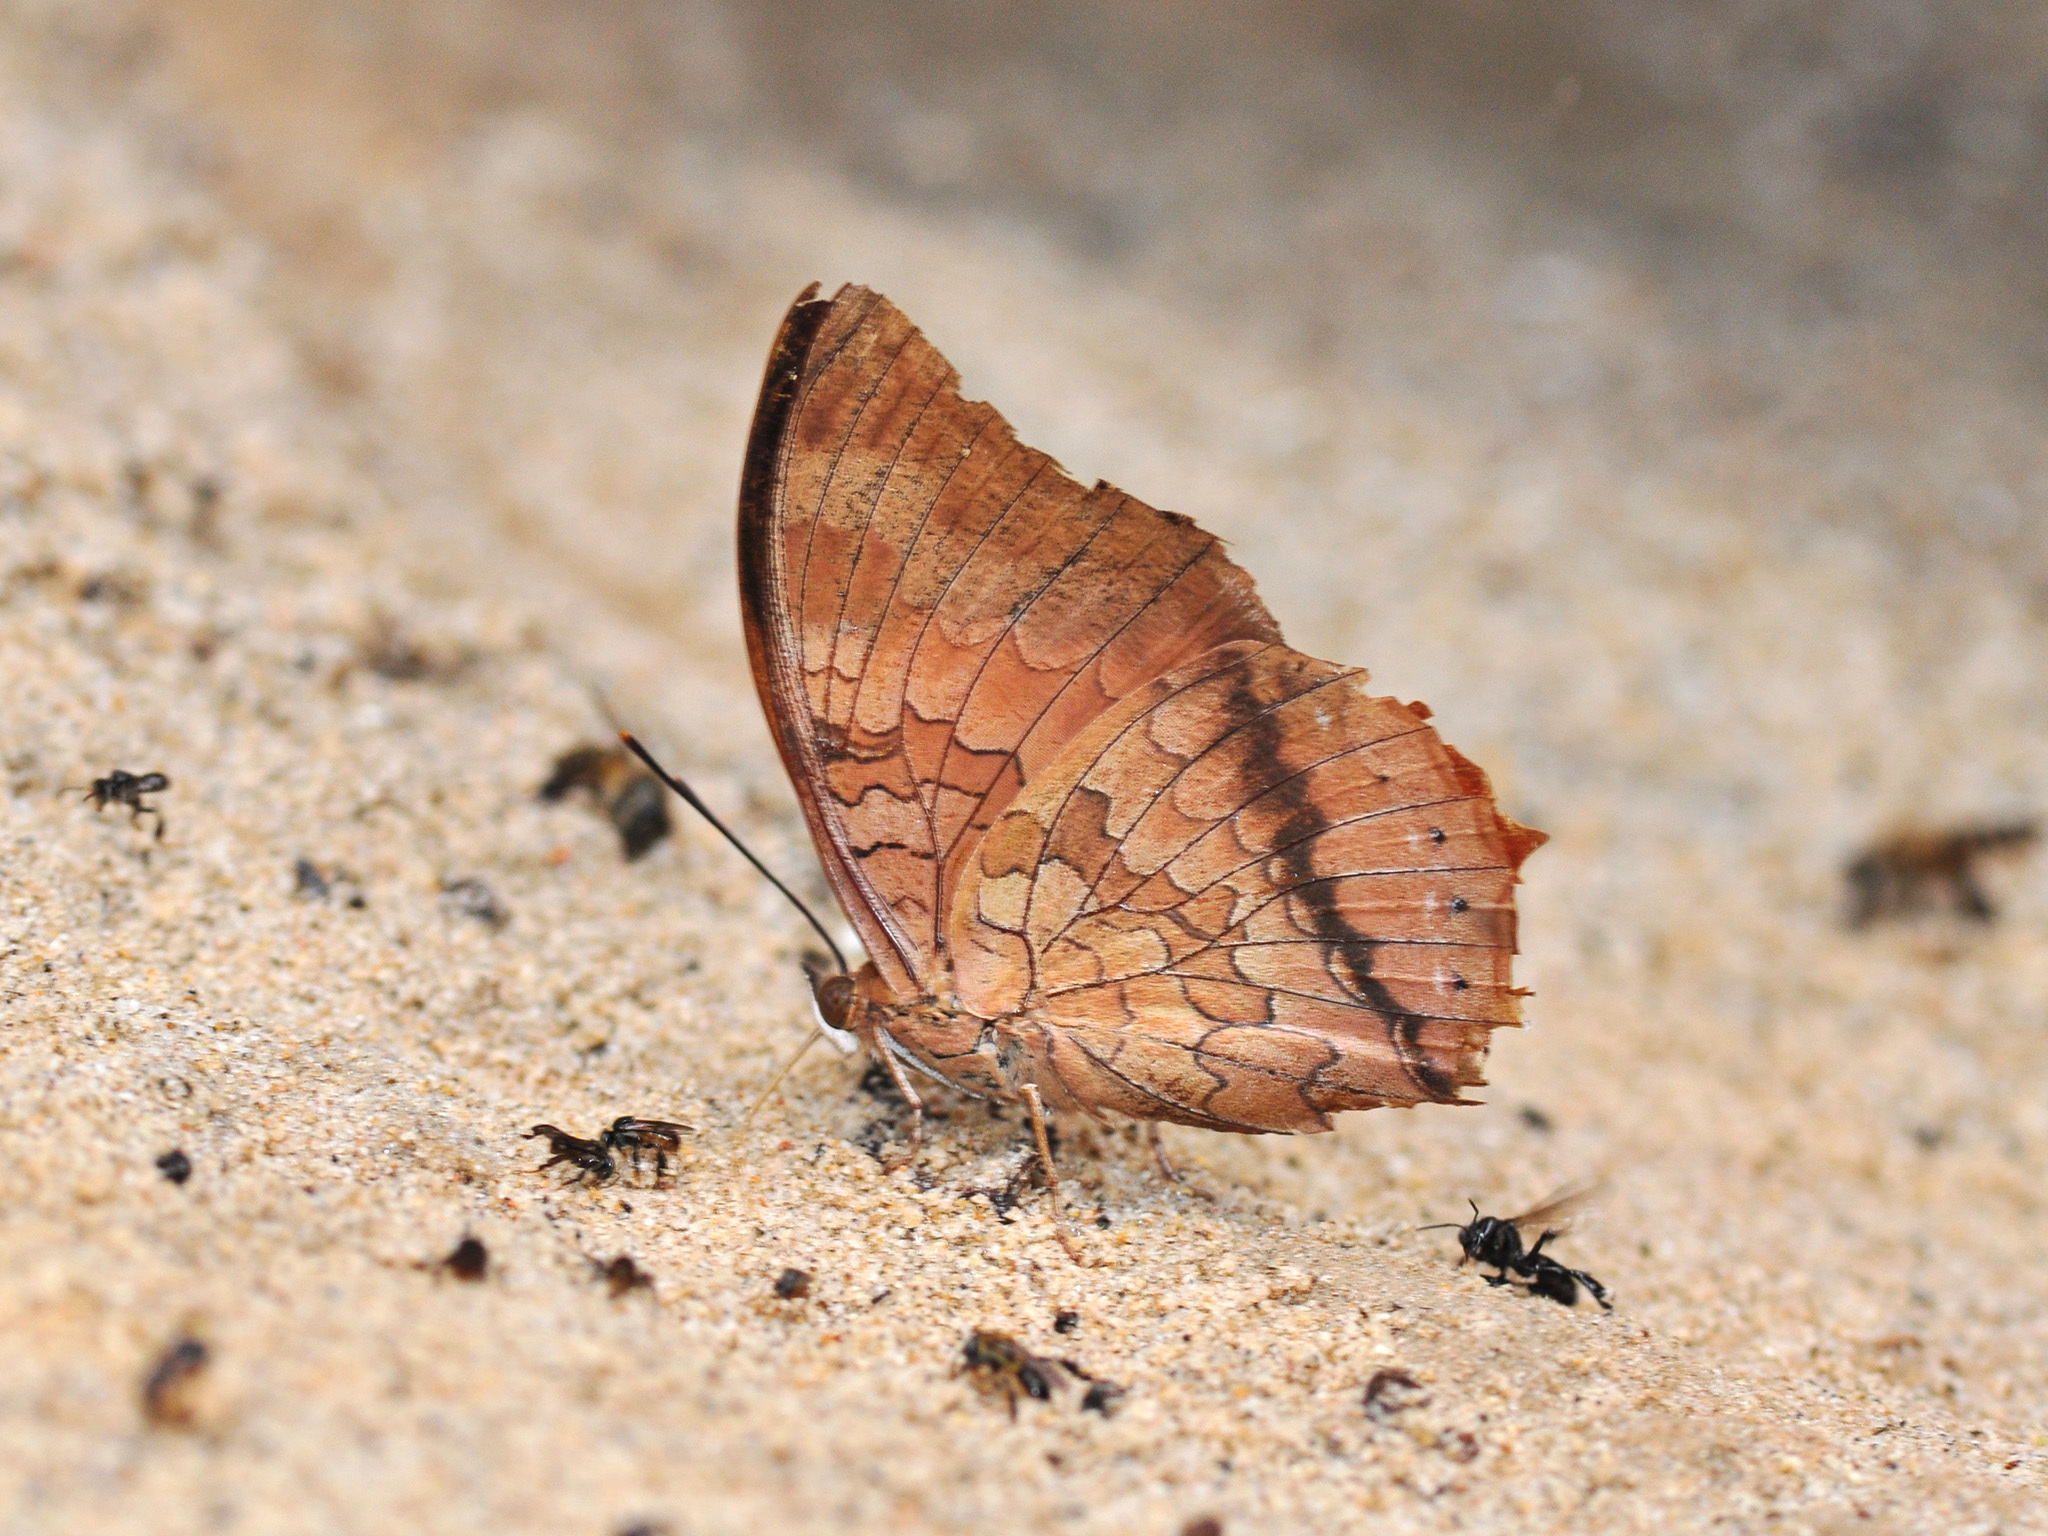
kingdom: Animalia
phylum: Arthropoda
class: Insecta
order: Lepidoptera
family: Nymphalidae
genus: Charaxes
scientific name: Charaxes bernardus
